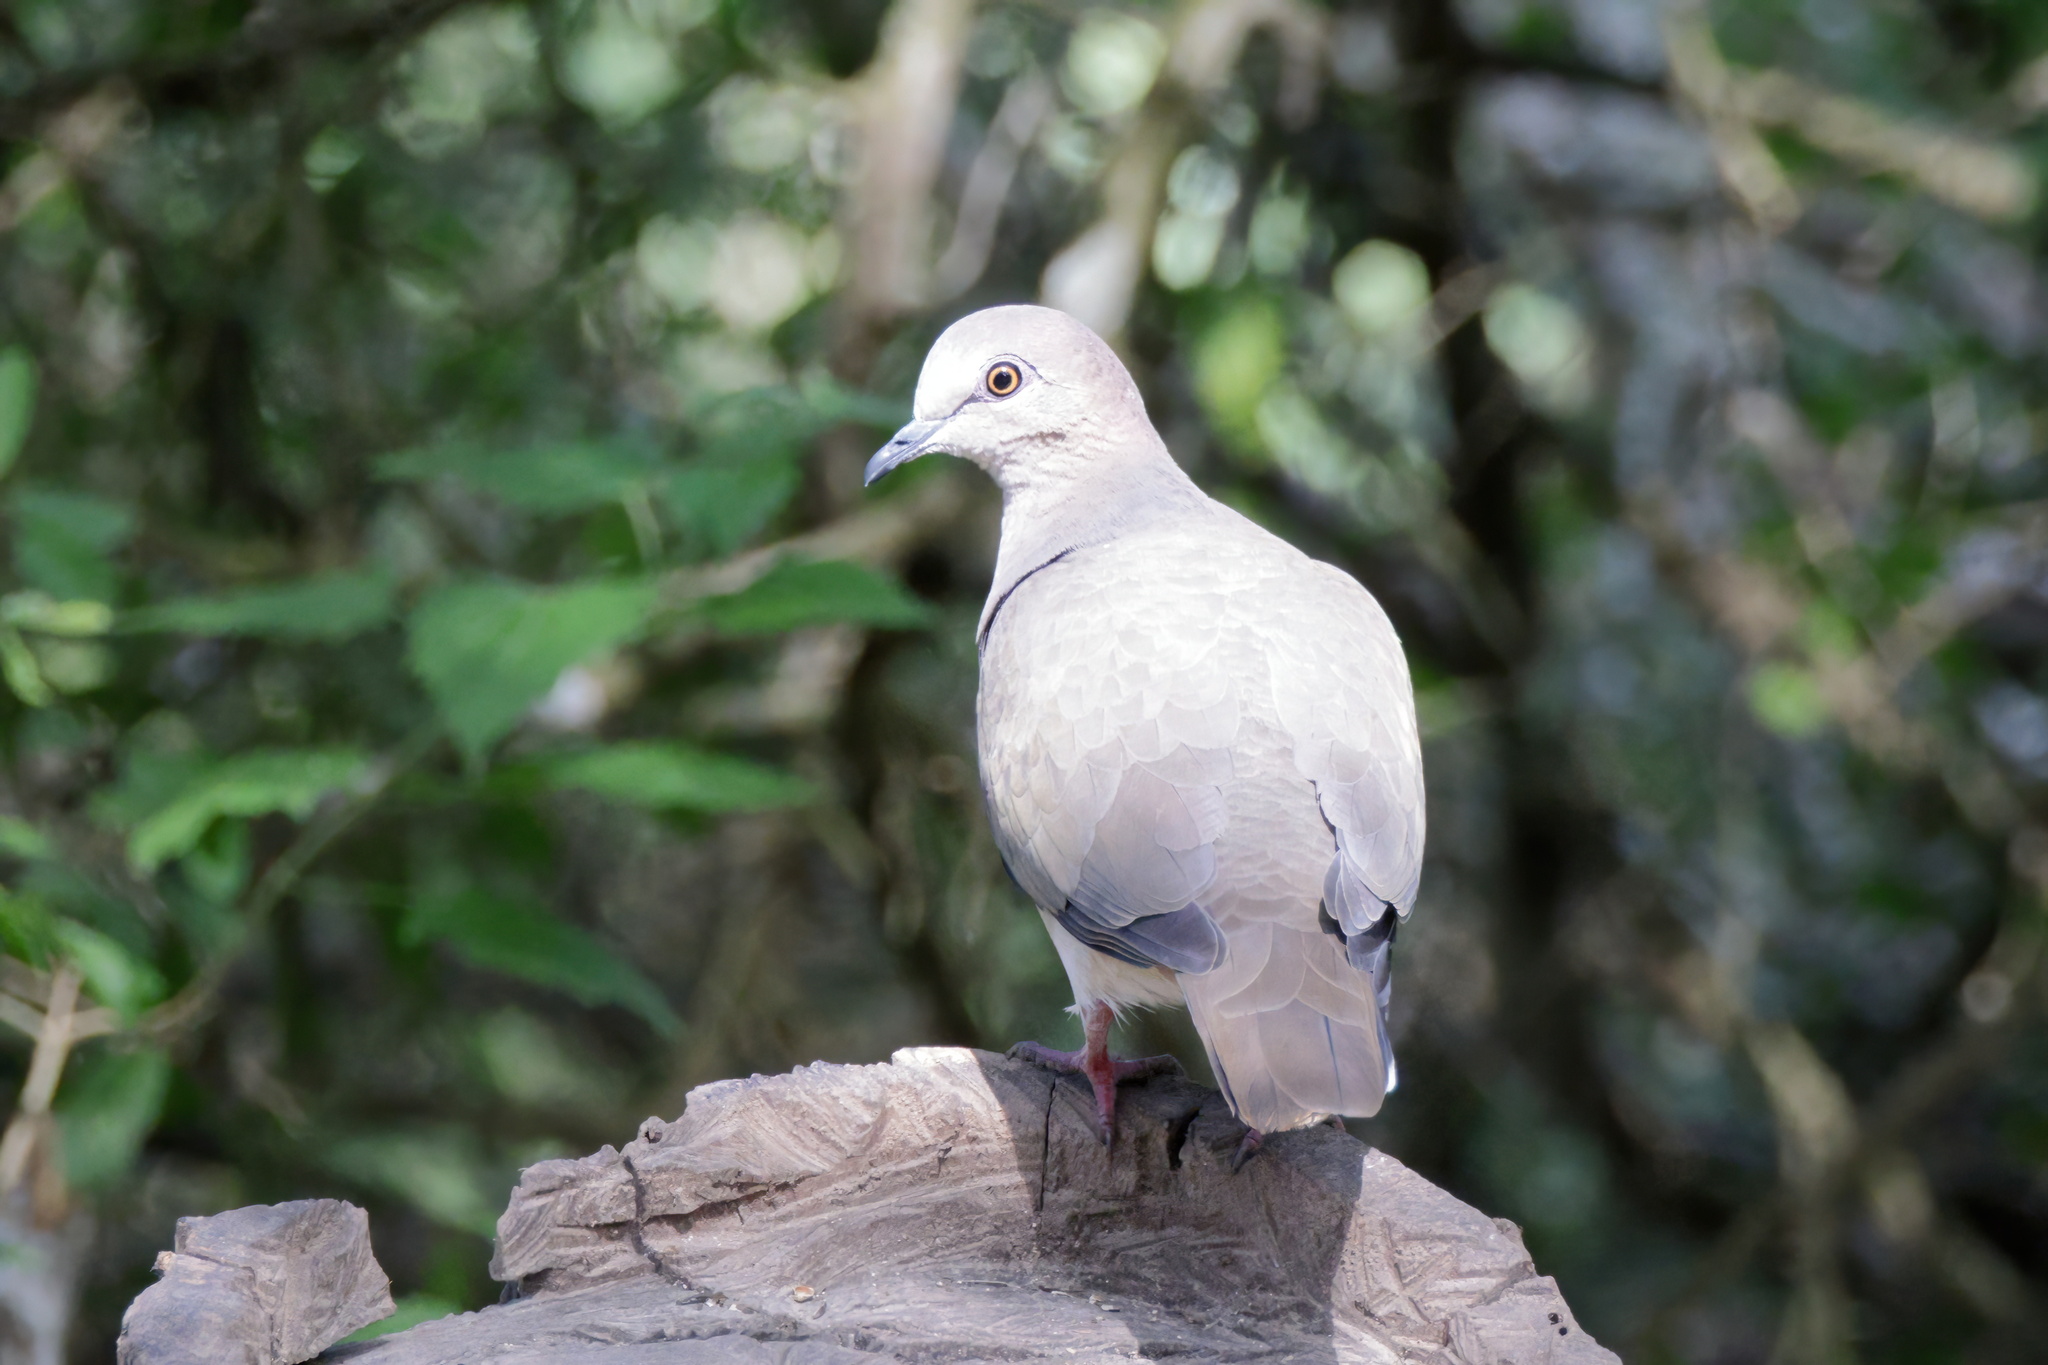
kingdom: Animalia
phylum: Chordata
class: Aves
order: Columbiformes
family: Columbidae
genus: Leptotila
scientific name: Leptotila verreauxi
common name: White-tipped dove
